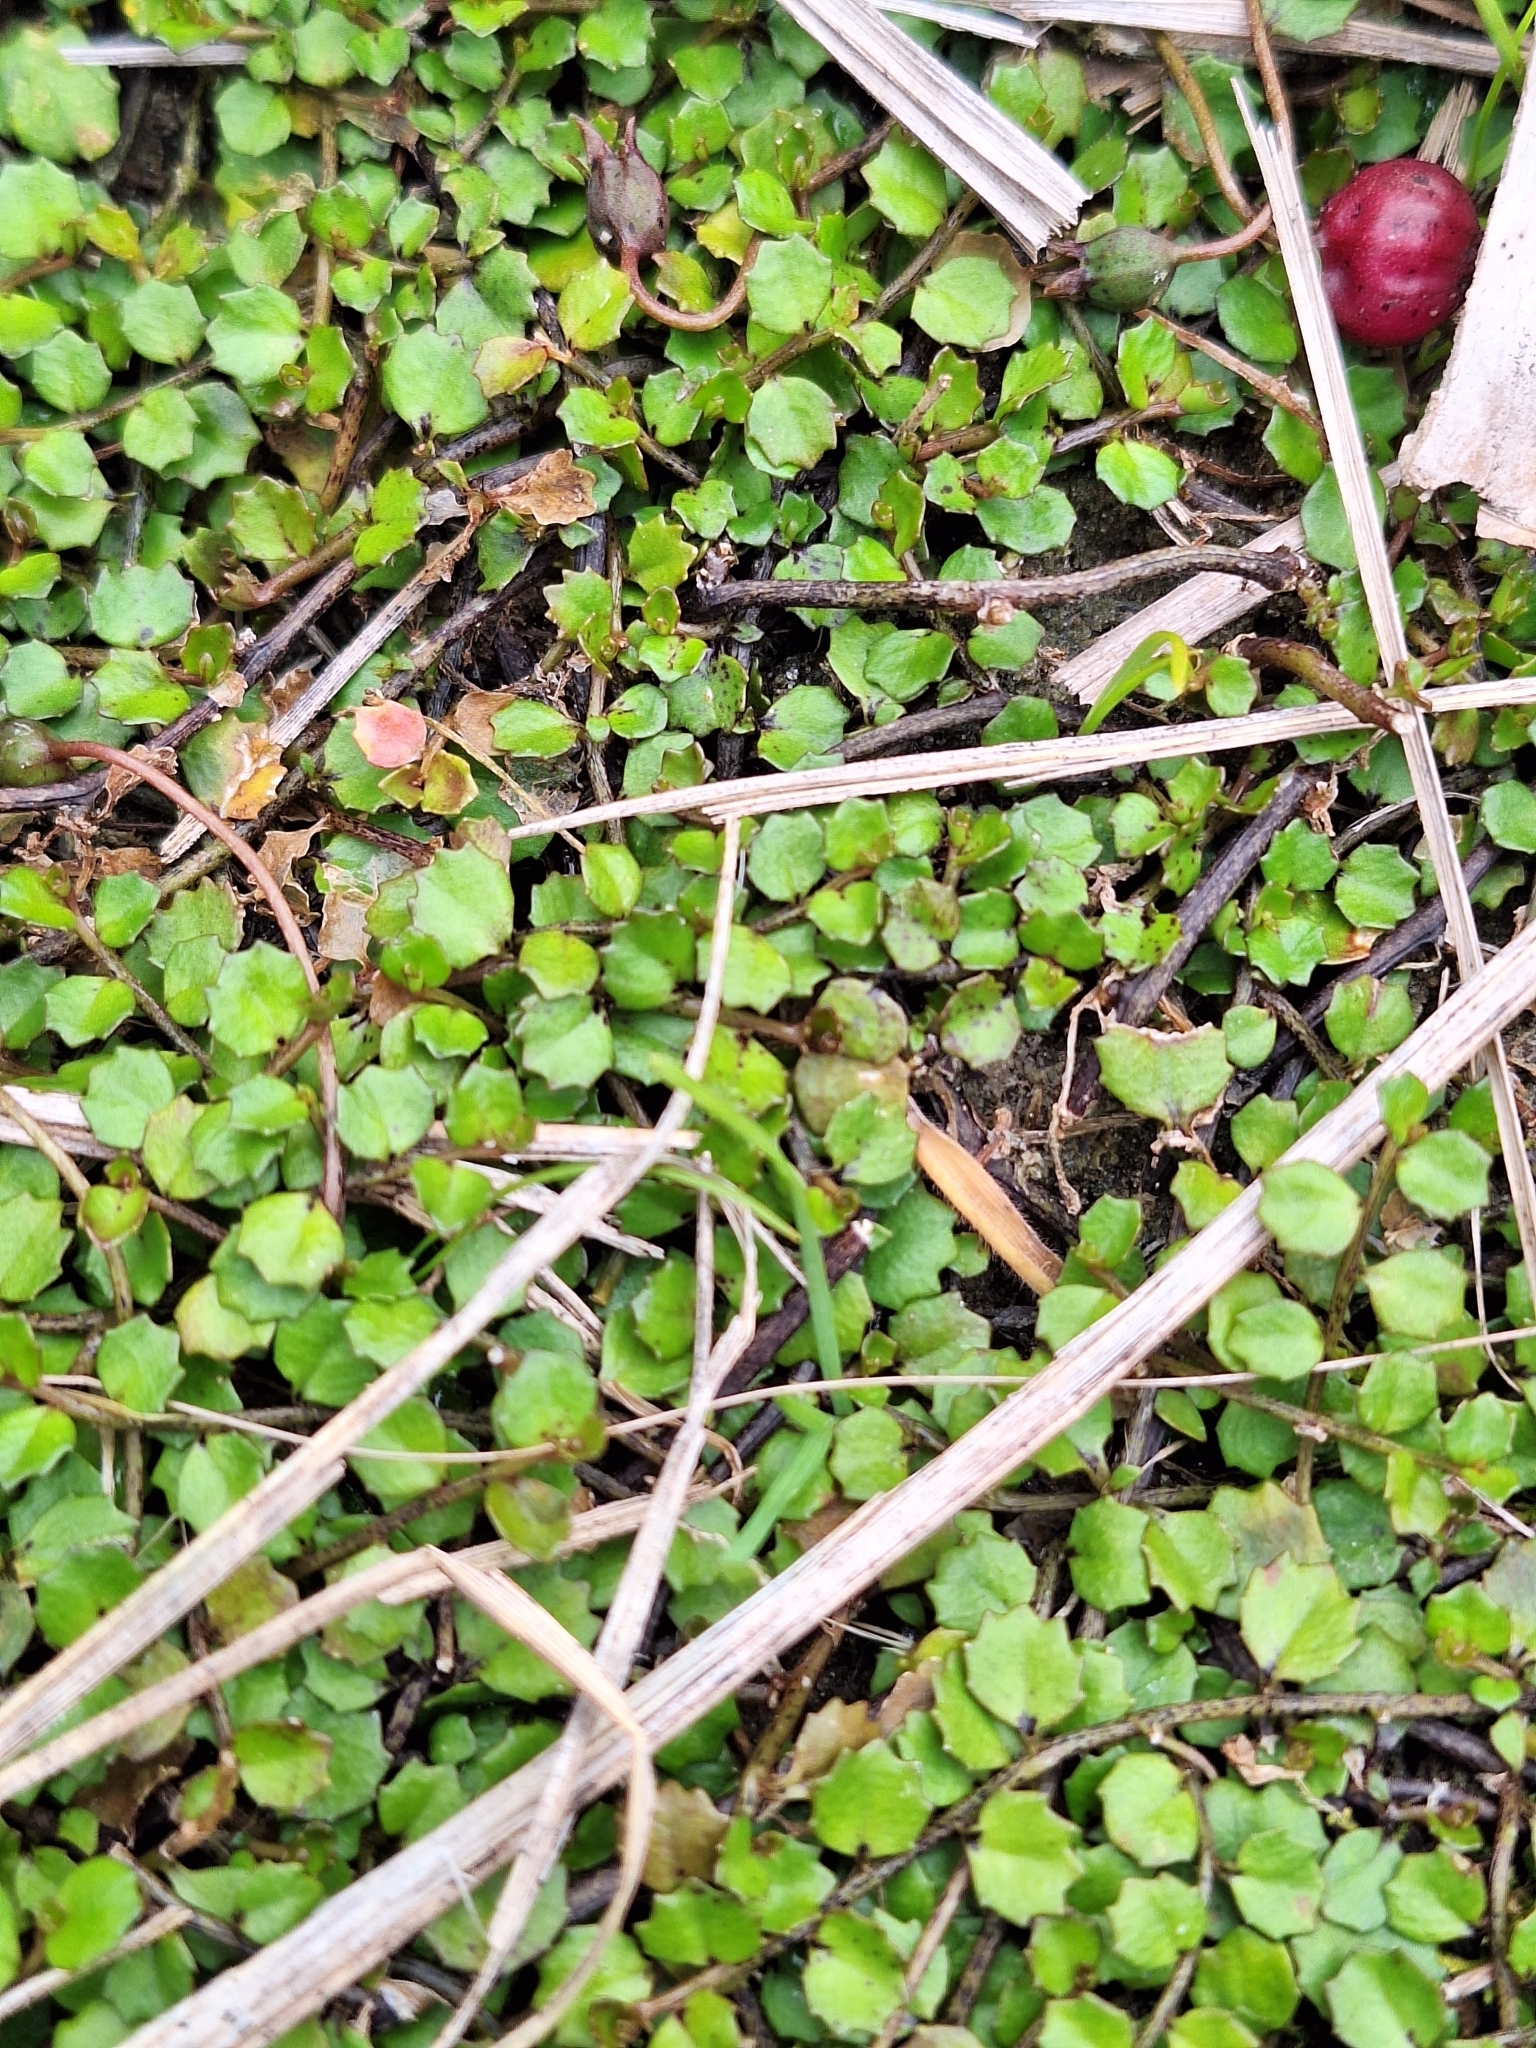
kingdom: Plantae
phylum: Tracheophyta
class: Magnoliopsida
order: Asterales
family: Campanulaceae
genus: Lobelia
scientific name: Lobelia angulata
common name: Lawn lobelia
